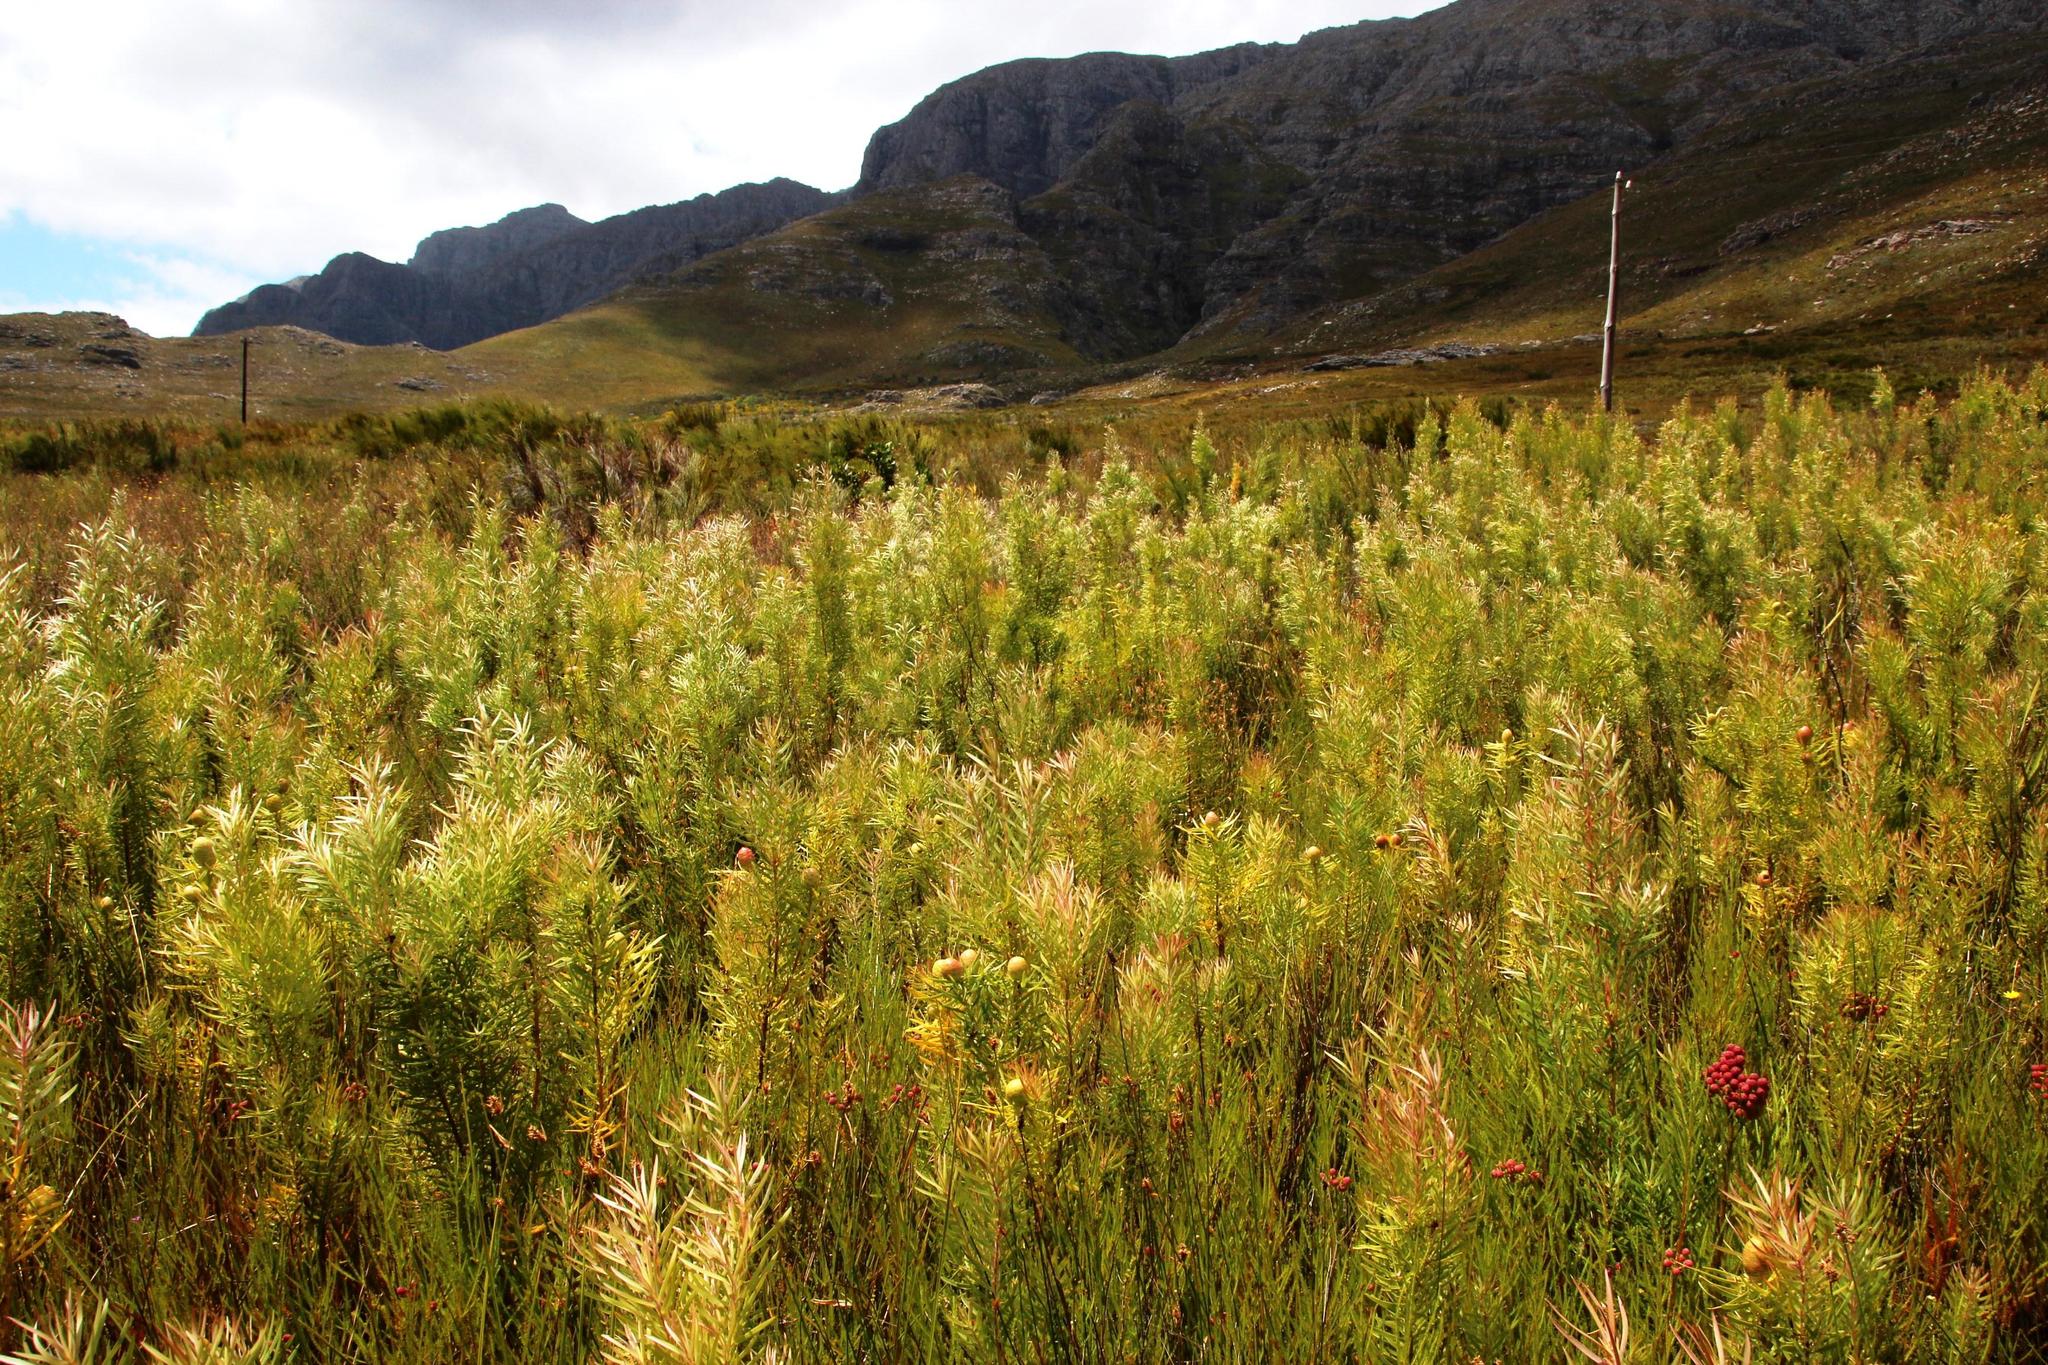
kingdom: Plantae
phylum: Tracheophyta
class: Magnoliopsida
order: Proteales
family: Proteaceae
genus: Leucadendron
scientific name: Leucadendron salicifolium
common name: Common stream conebush
